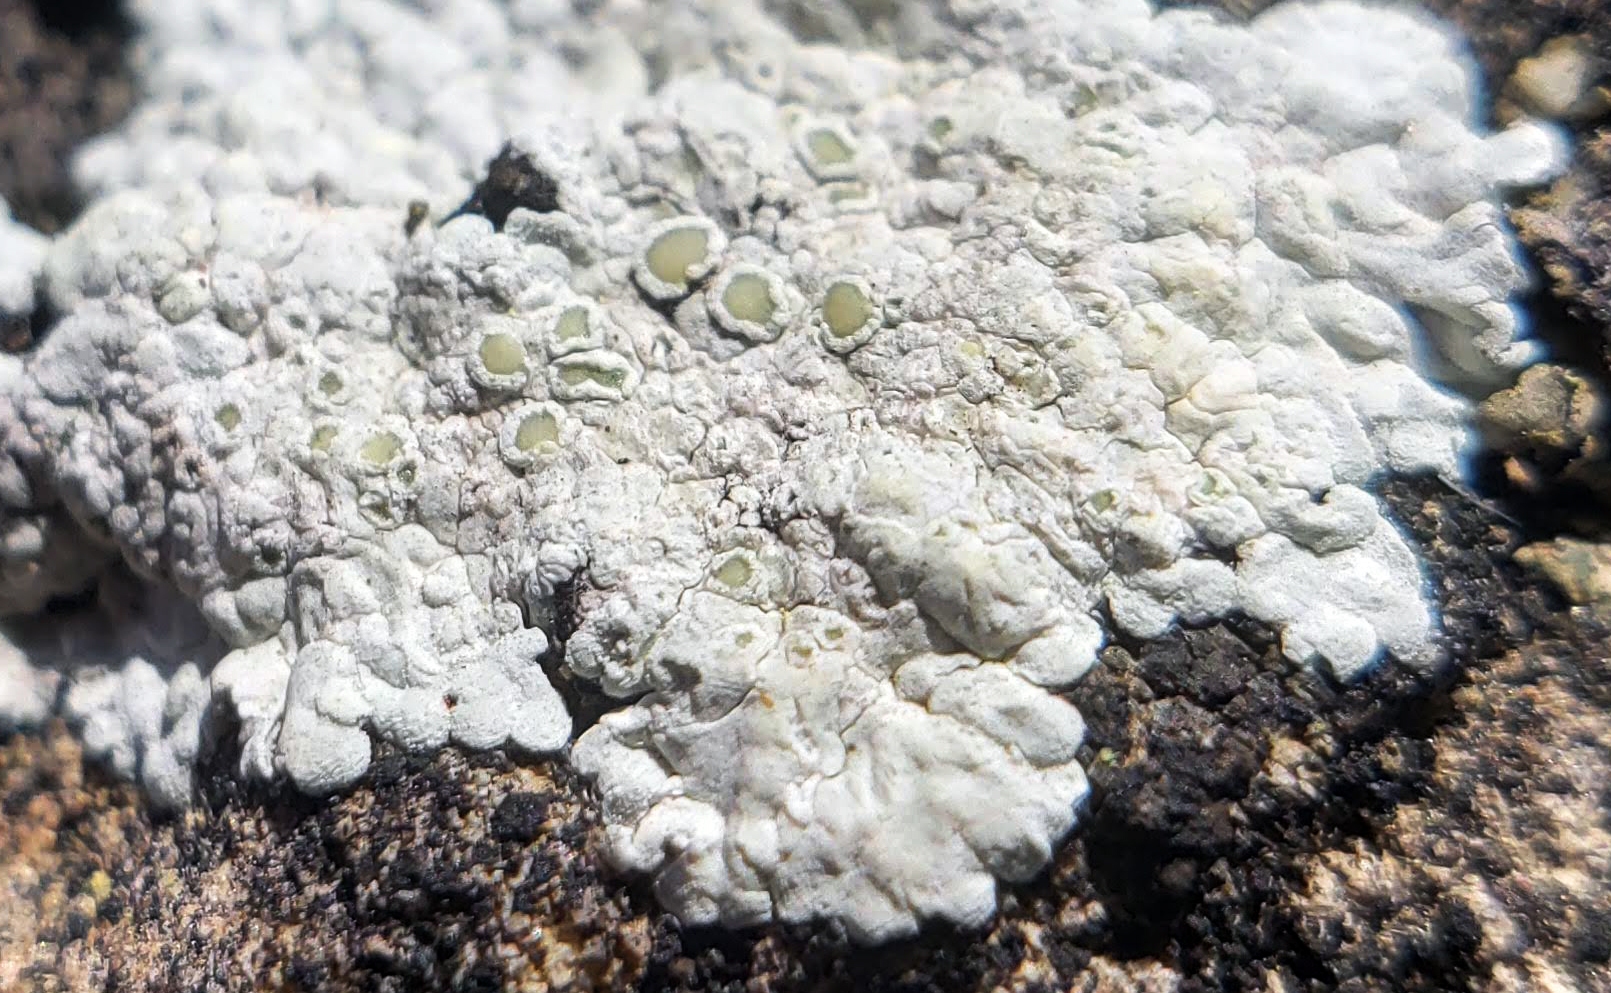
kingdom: Fungi
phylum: Ascomycota
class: Lecanoromycetes
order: Lecanorales
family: Lecanoraceae
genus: Lecanora
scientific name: Lecanora valesiaca
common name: Valois rim-lichen
